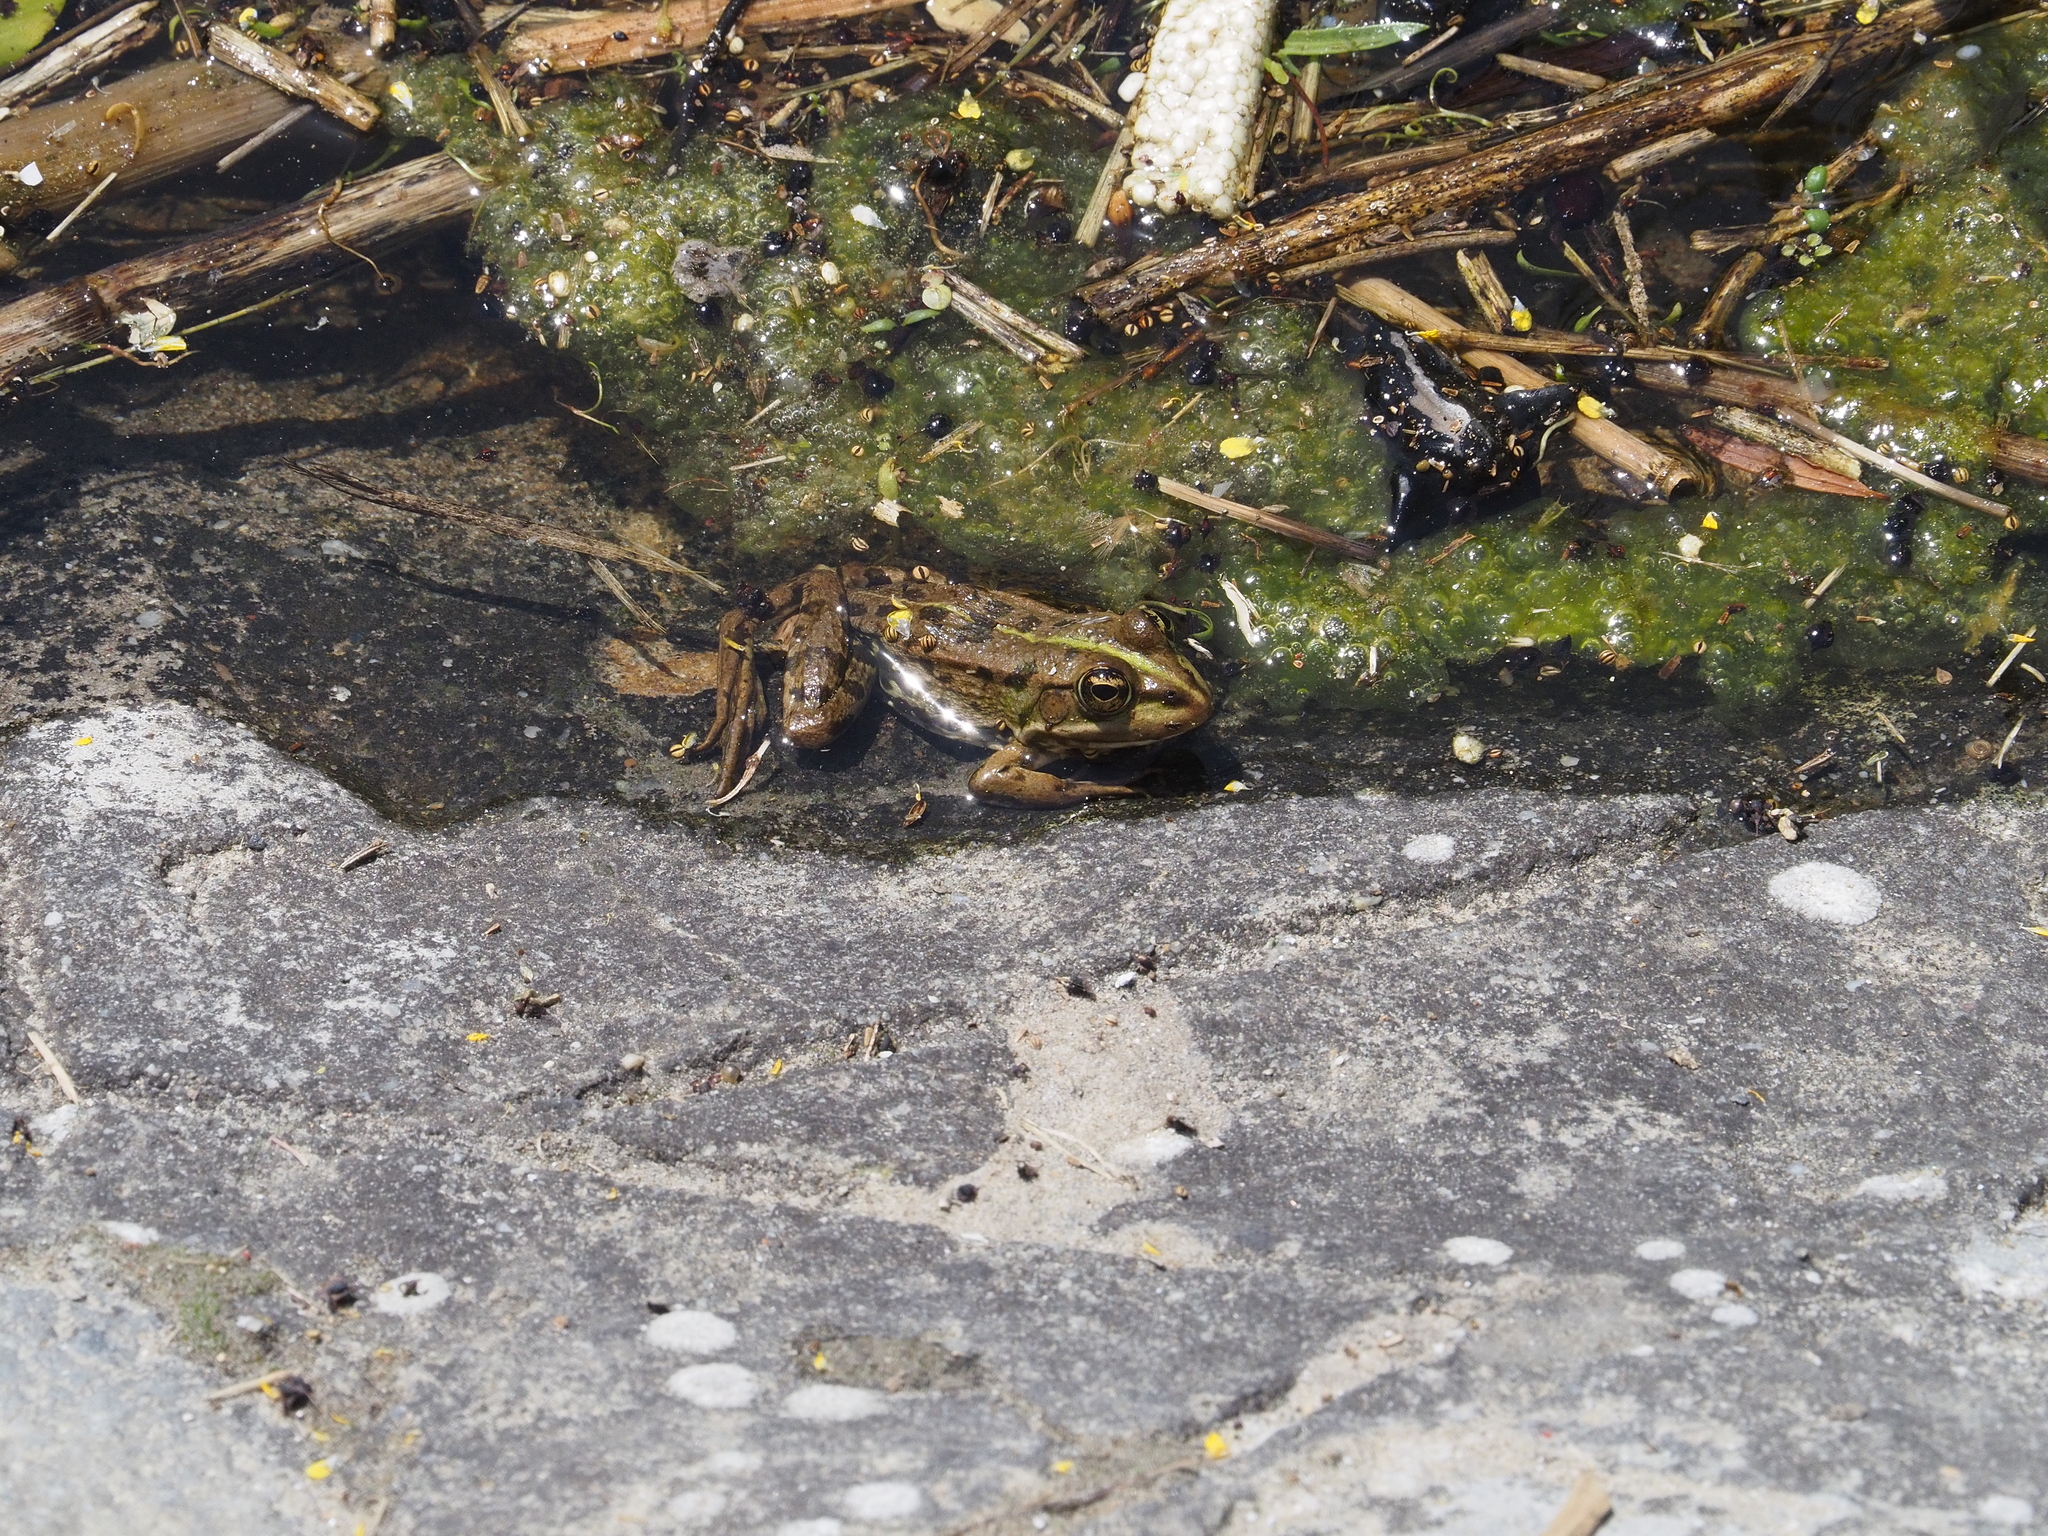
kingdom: Animalia
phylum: Chordata
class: Amphibia
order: Anura
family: Ranidae
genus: Pelophylax
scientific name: Pelophylax ridibundus
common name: Marsh frog
